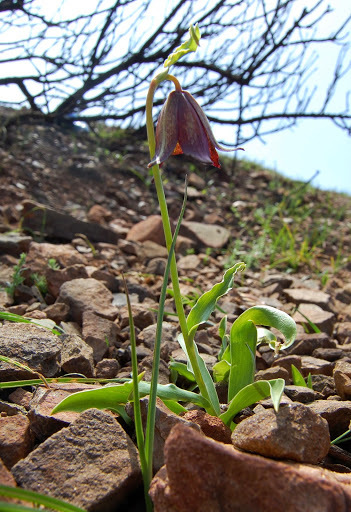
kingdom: Plantae
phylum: Tracheophyta
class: Liliopsida
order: Liliales
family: Liliaceae
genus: Fritillaria
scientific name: Fritillaria biflora
